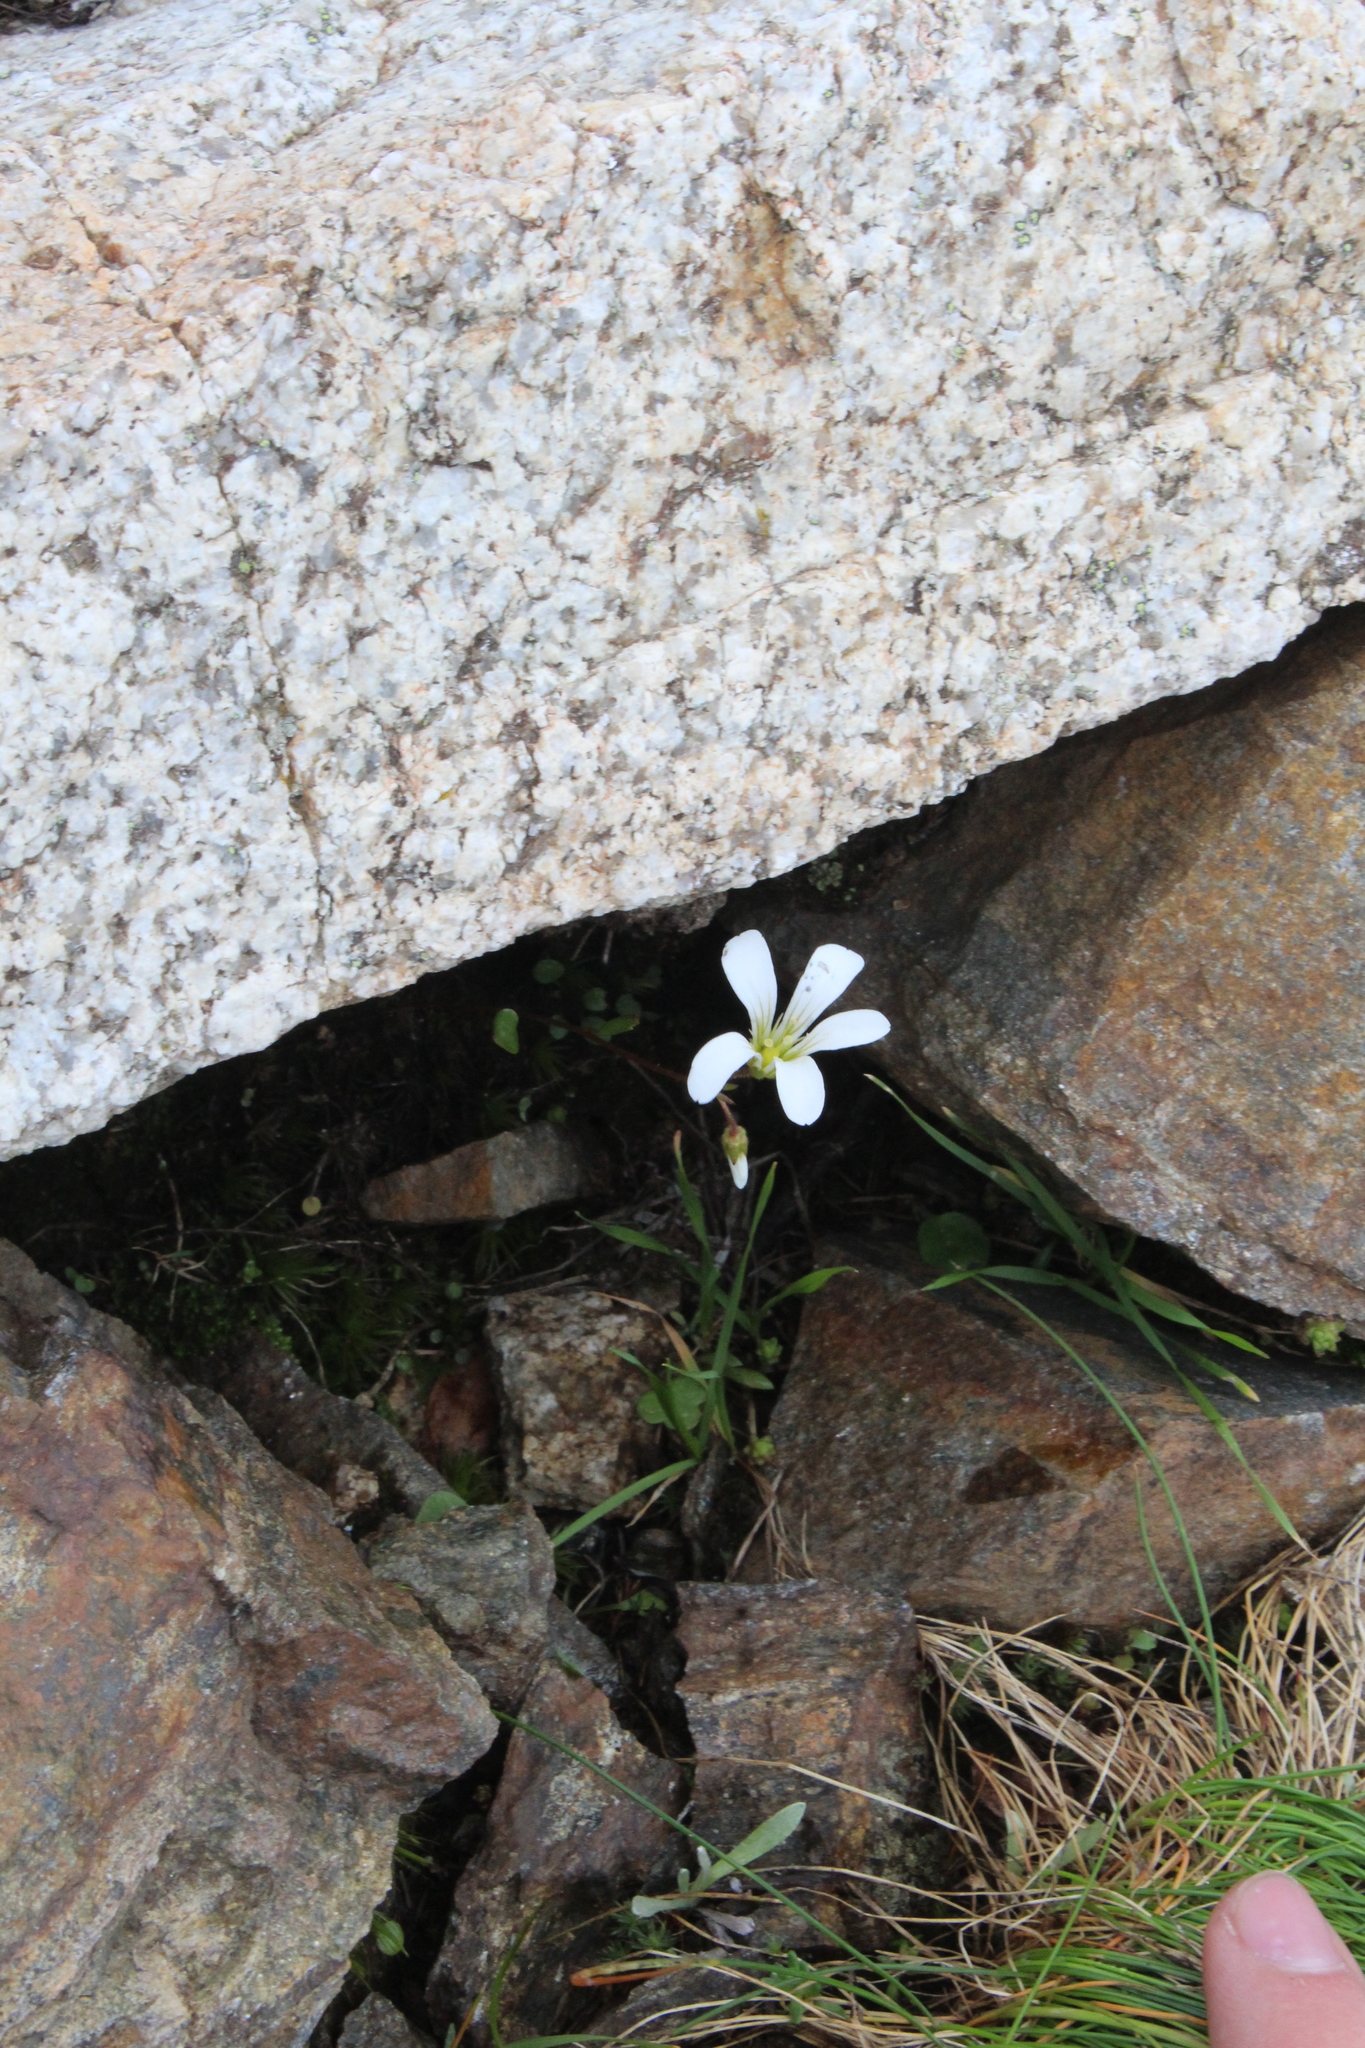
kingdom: Plantae
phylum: Tracheophyta
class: Magnoliopsida
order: Saxifragales
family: Saxifragaceae
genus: Saxifraga
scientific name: Saxifraga sibirica
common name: Siberian saxifrage
